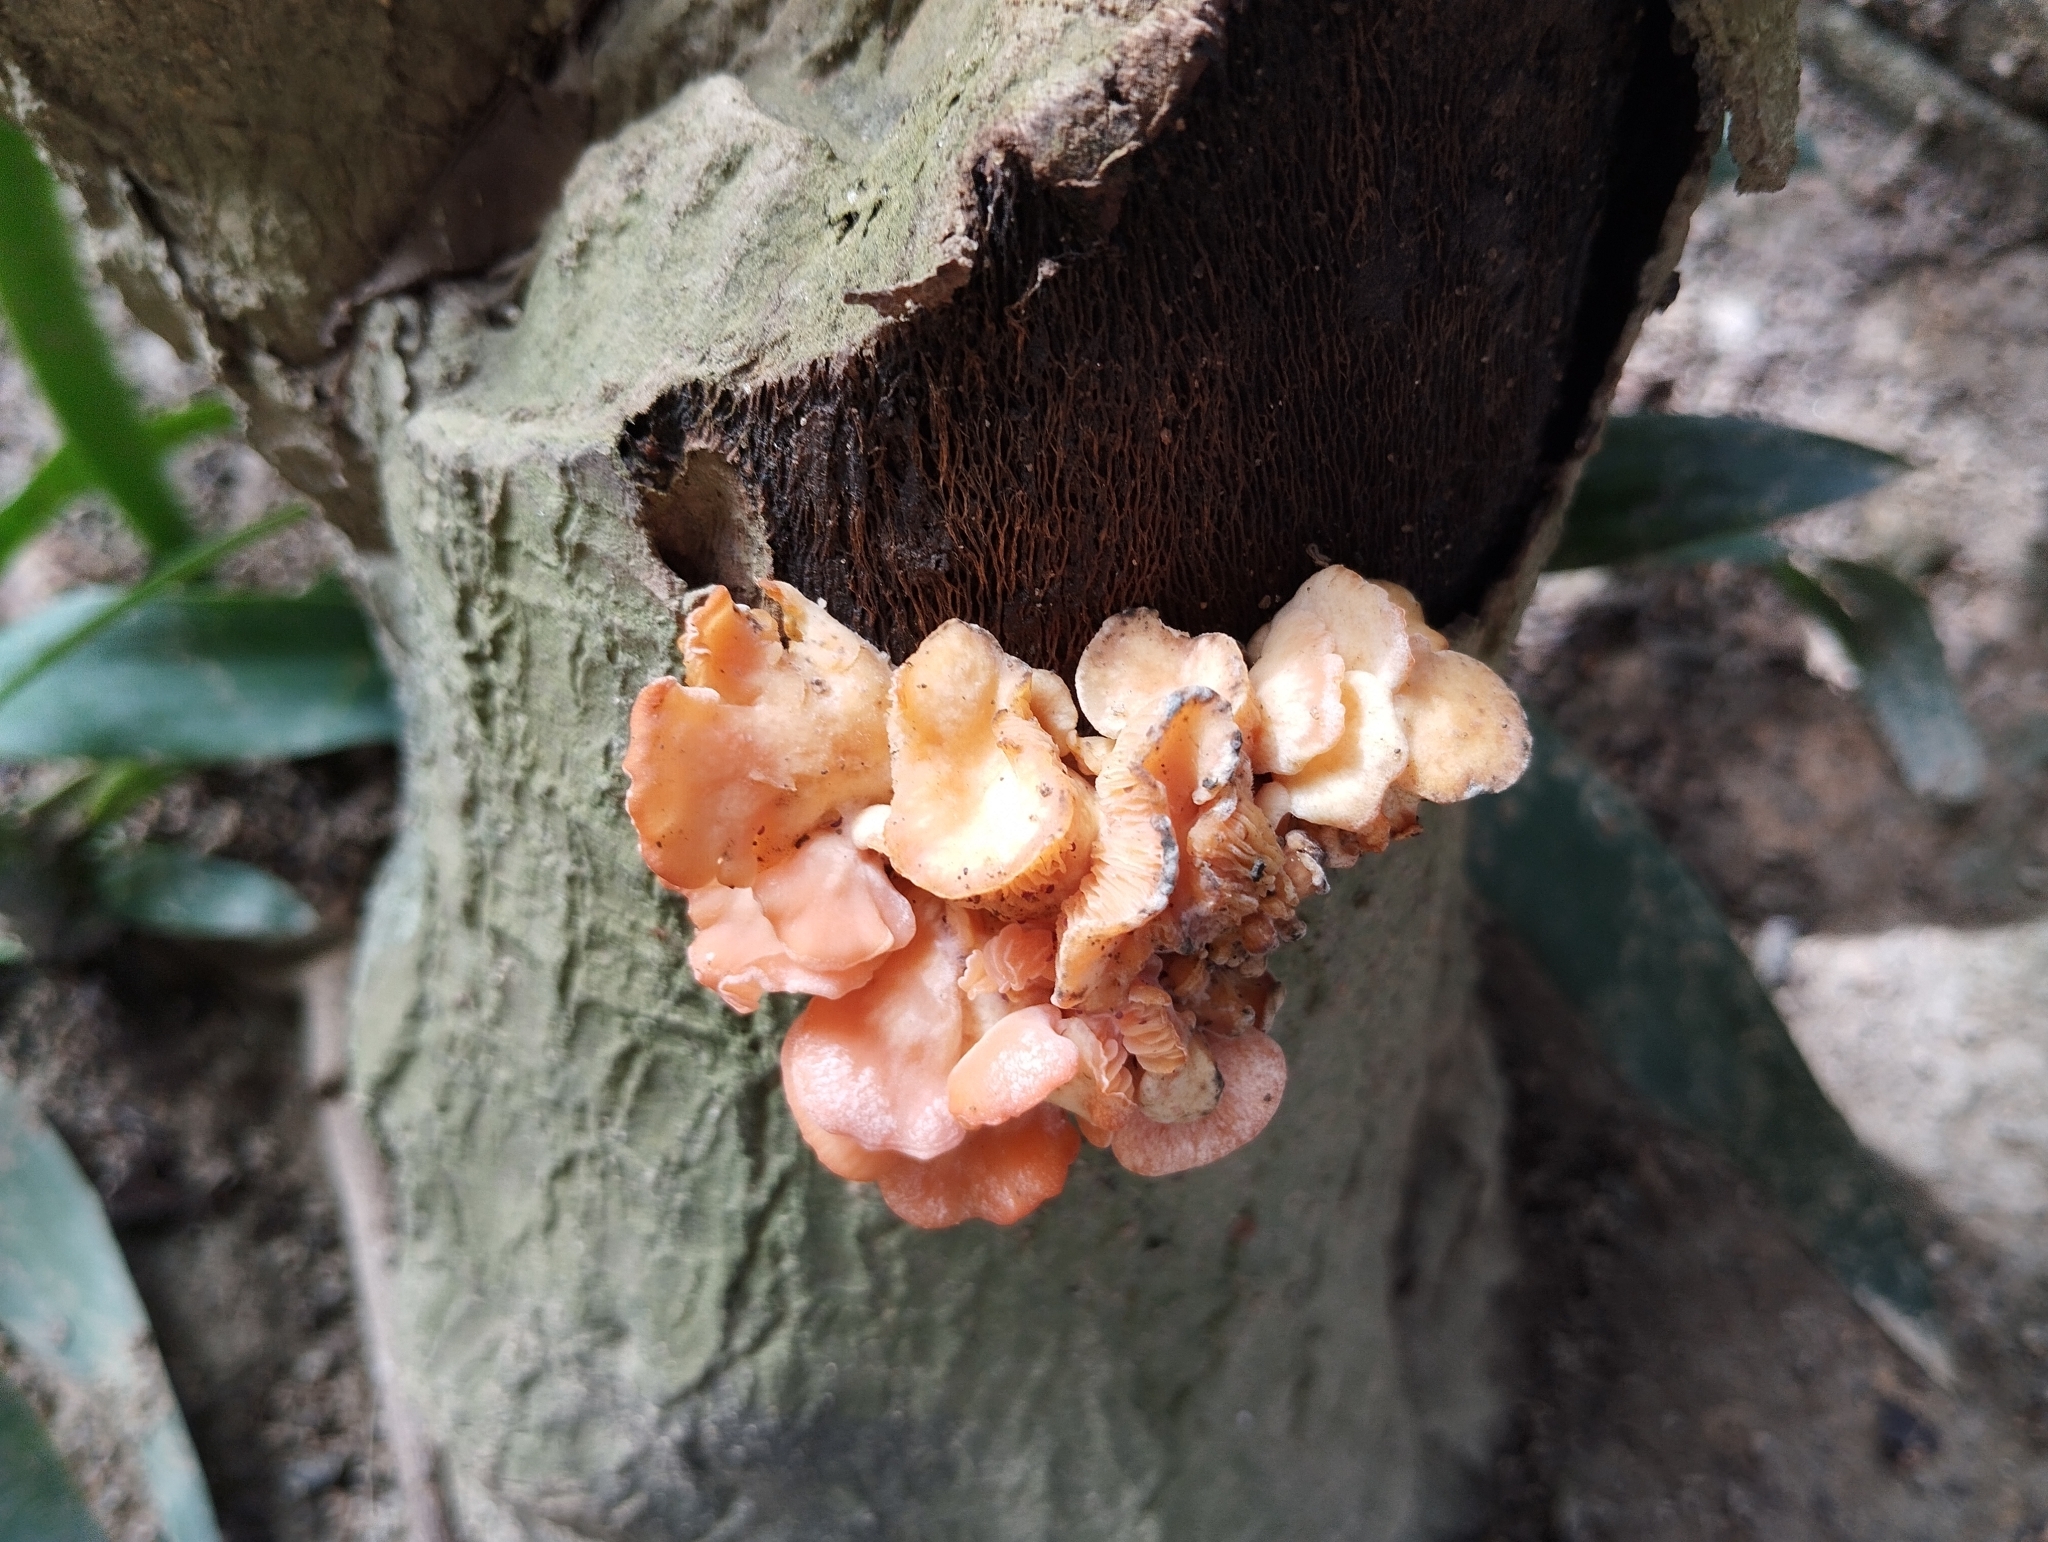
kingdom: Fungi
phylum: Basidiomycota
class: Agaricomycetes
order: Agaricales
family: Pleurotaceae
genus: Pleurotus
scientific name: Pleurotus djamor
